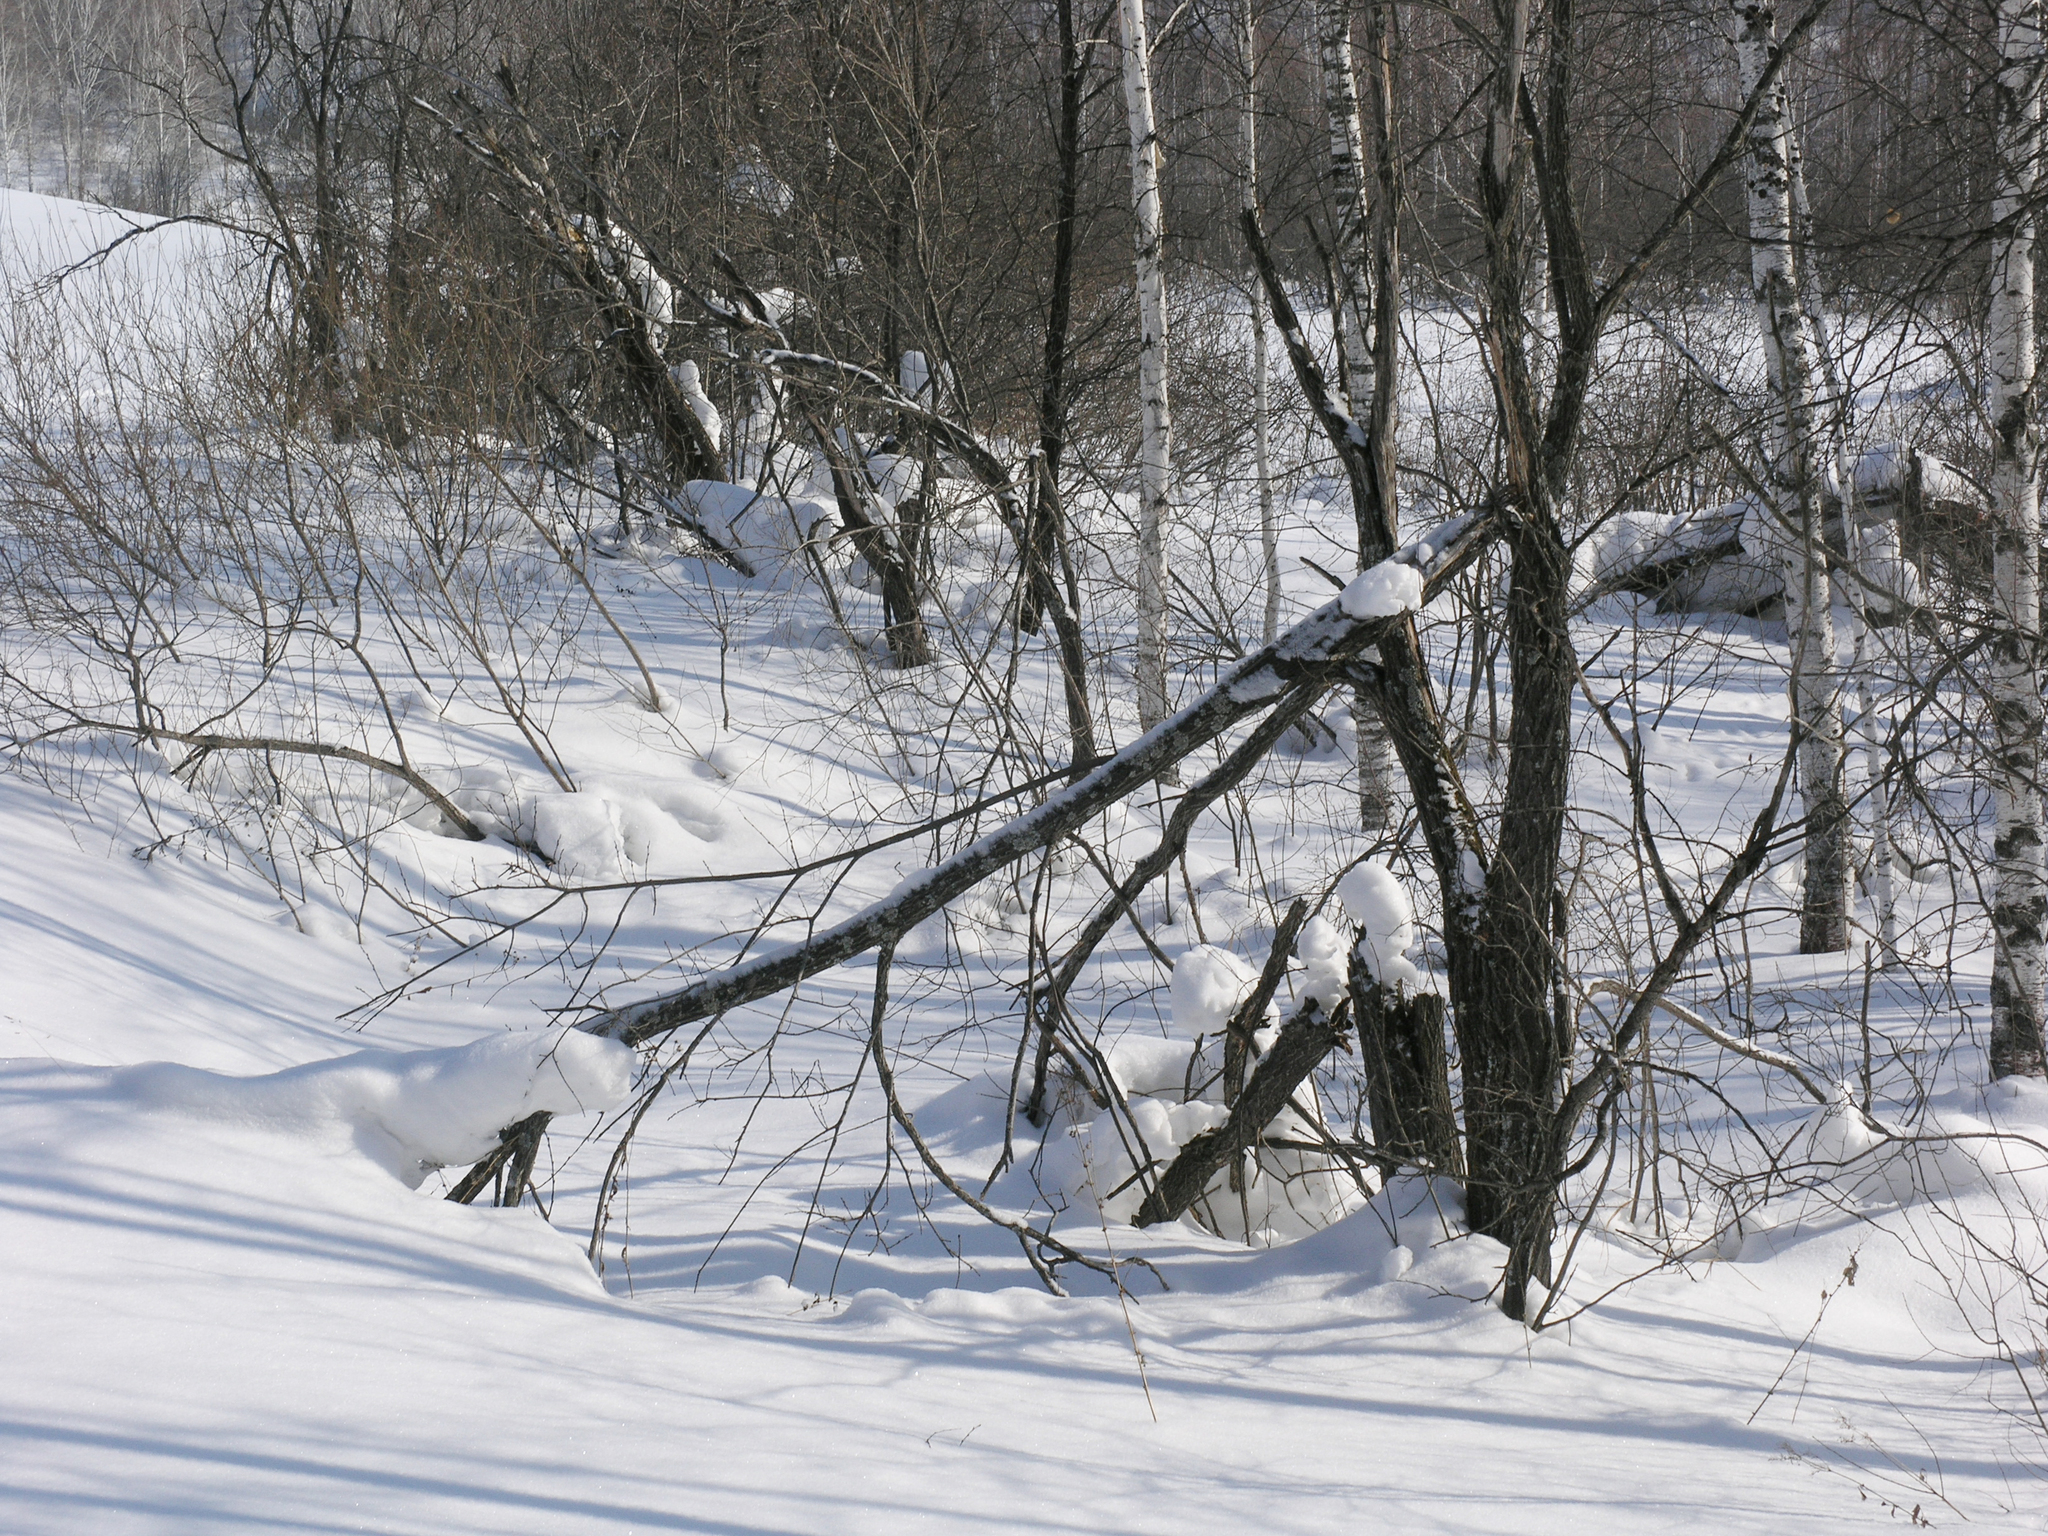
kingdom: Plantae
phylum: Tracheophyta
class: Magnoliopsida
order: Rosales
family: Rosaceae
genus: Prunus
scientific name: Prunus padus
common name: Bird cherry
